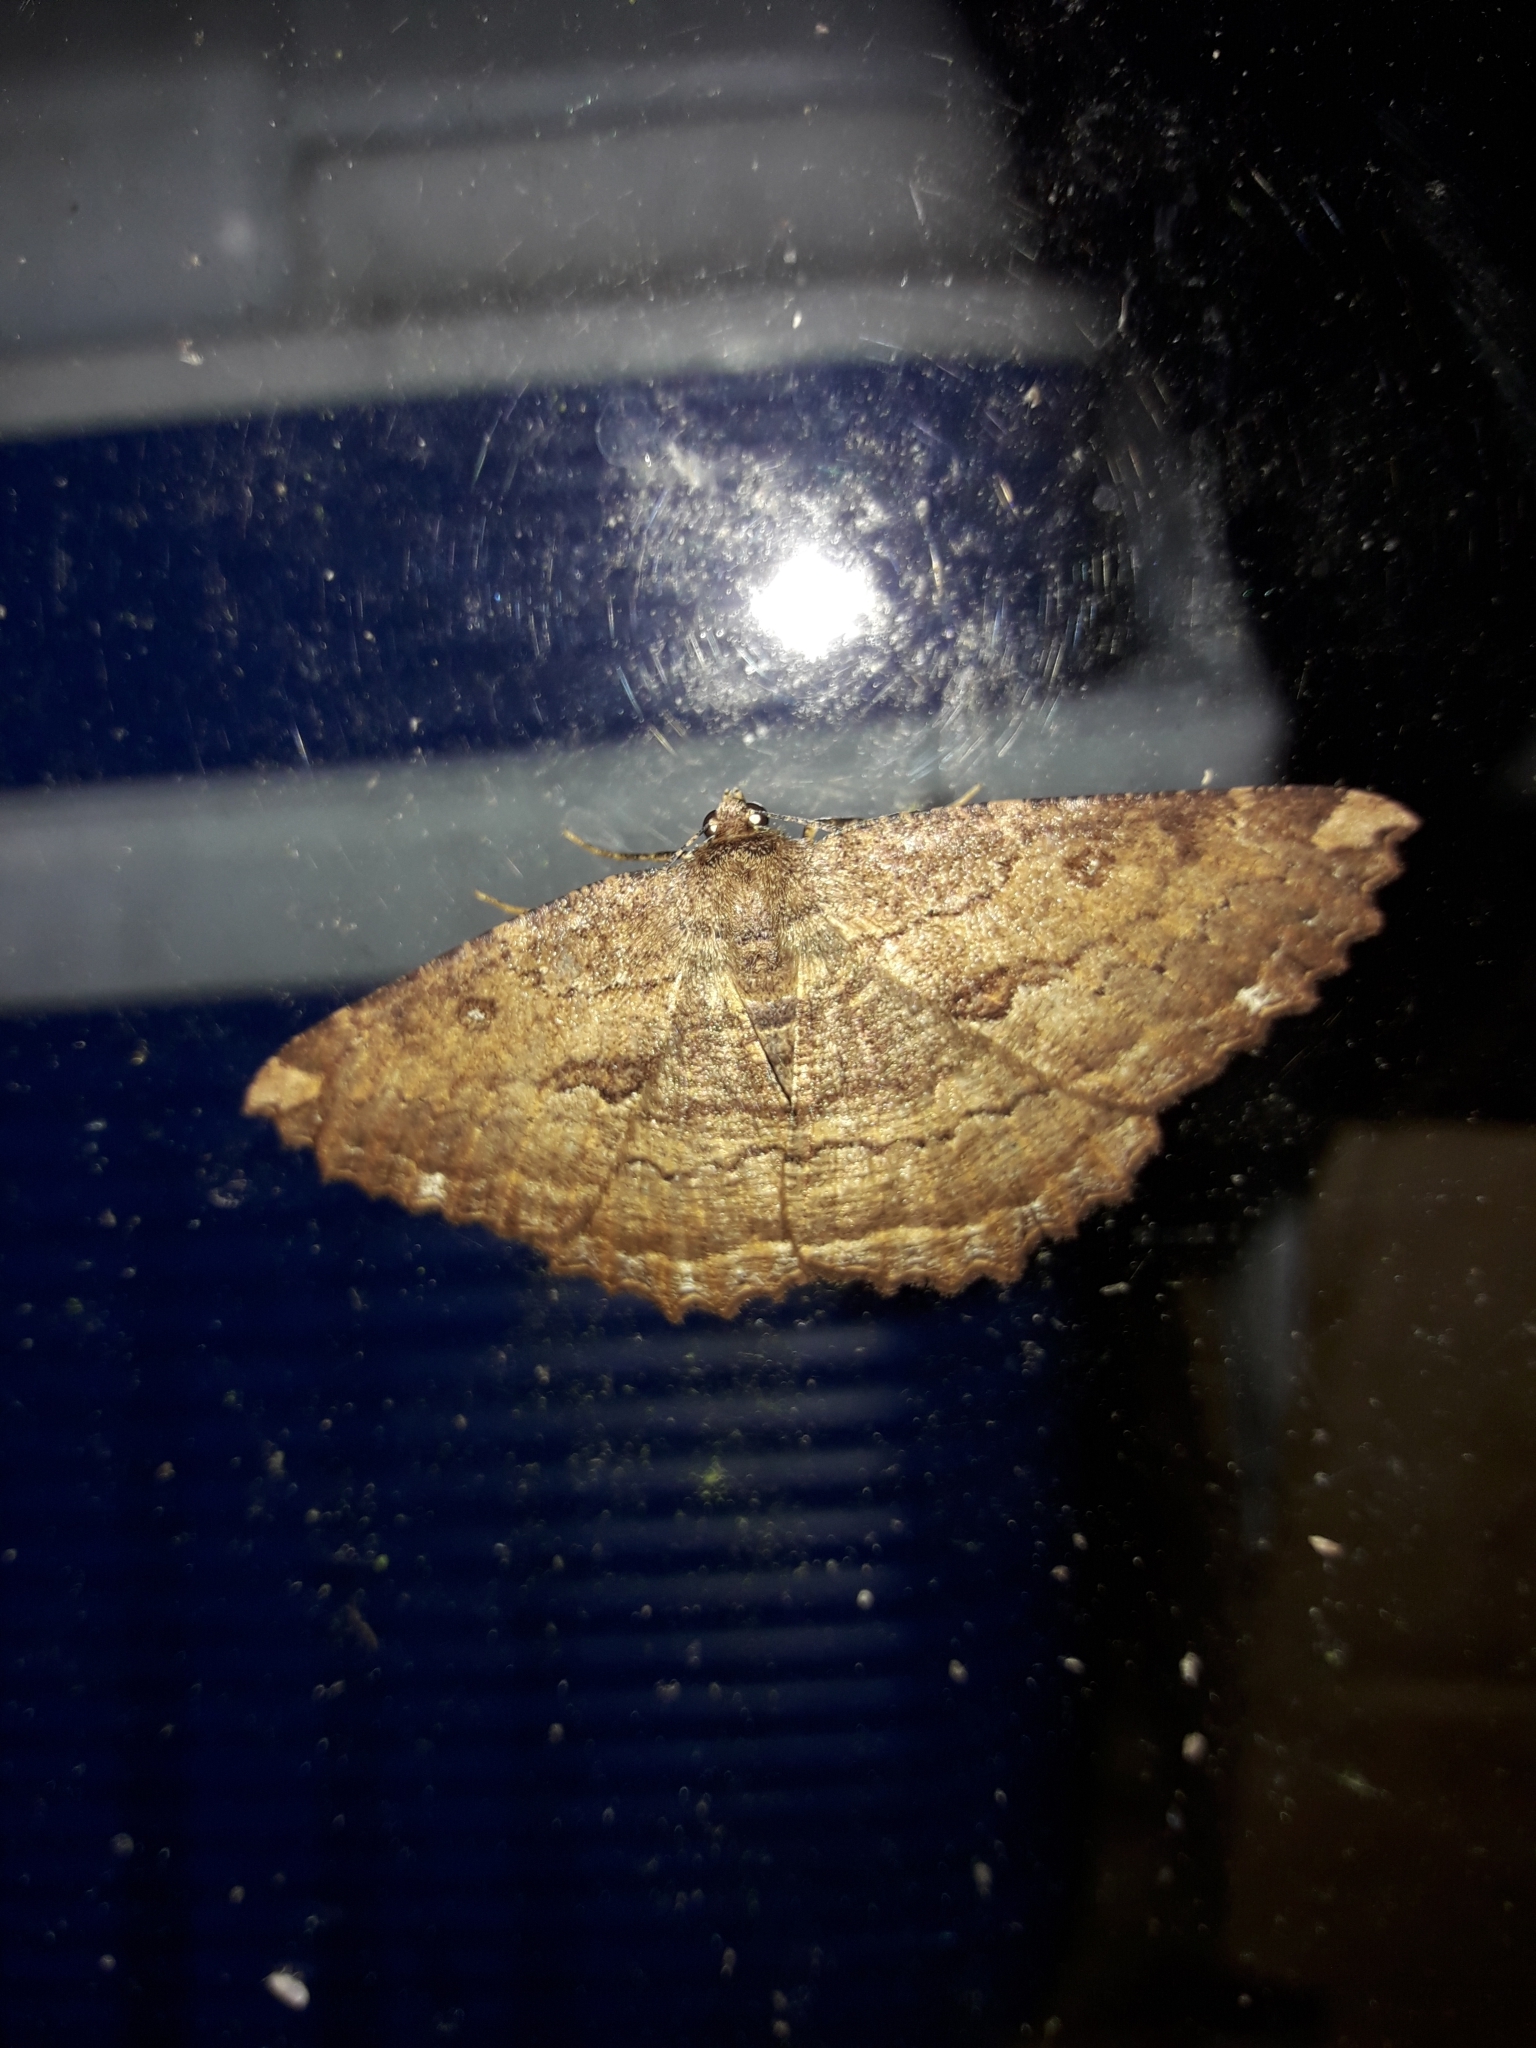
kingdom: Animalia
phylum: Arthropoda
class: Insecta
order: Lepidoptera
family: Geometridae
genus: Gellonia
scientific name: Gellonia dejectaria
